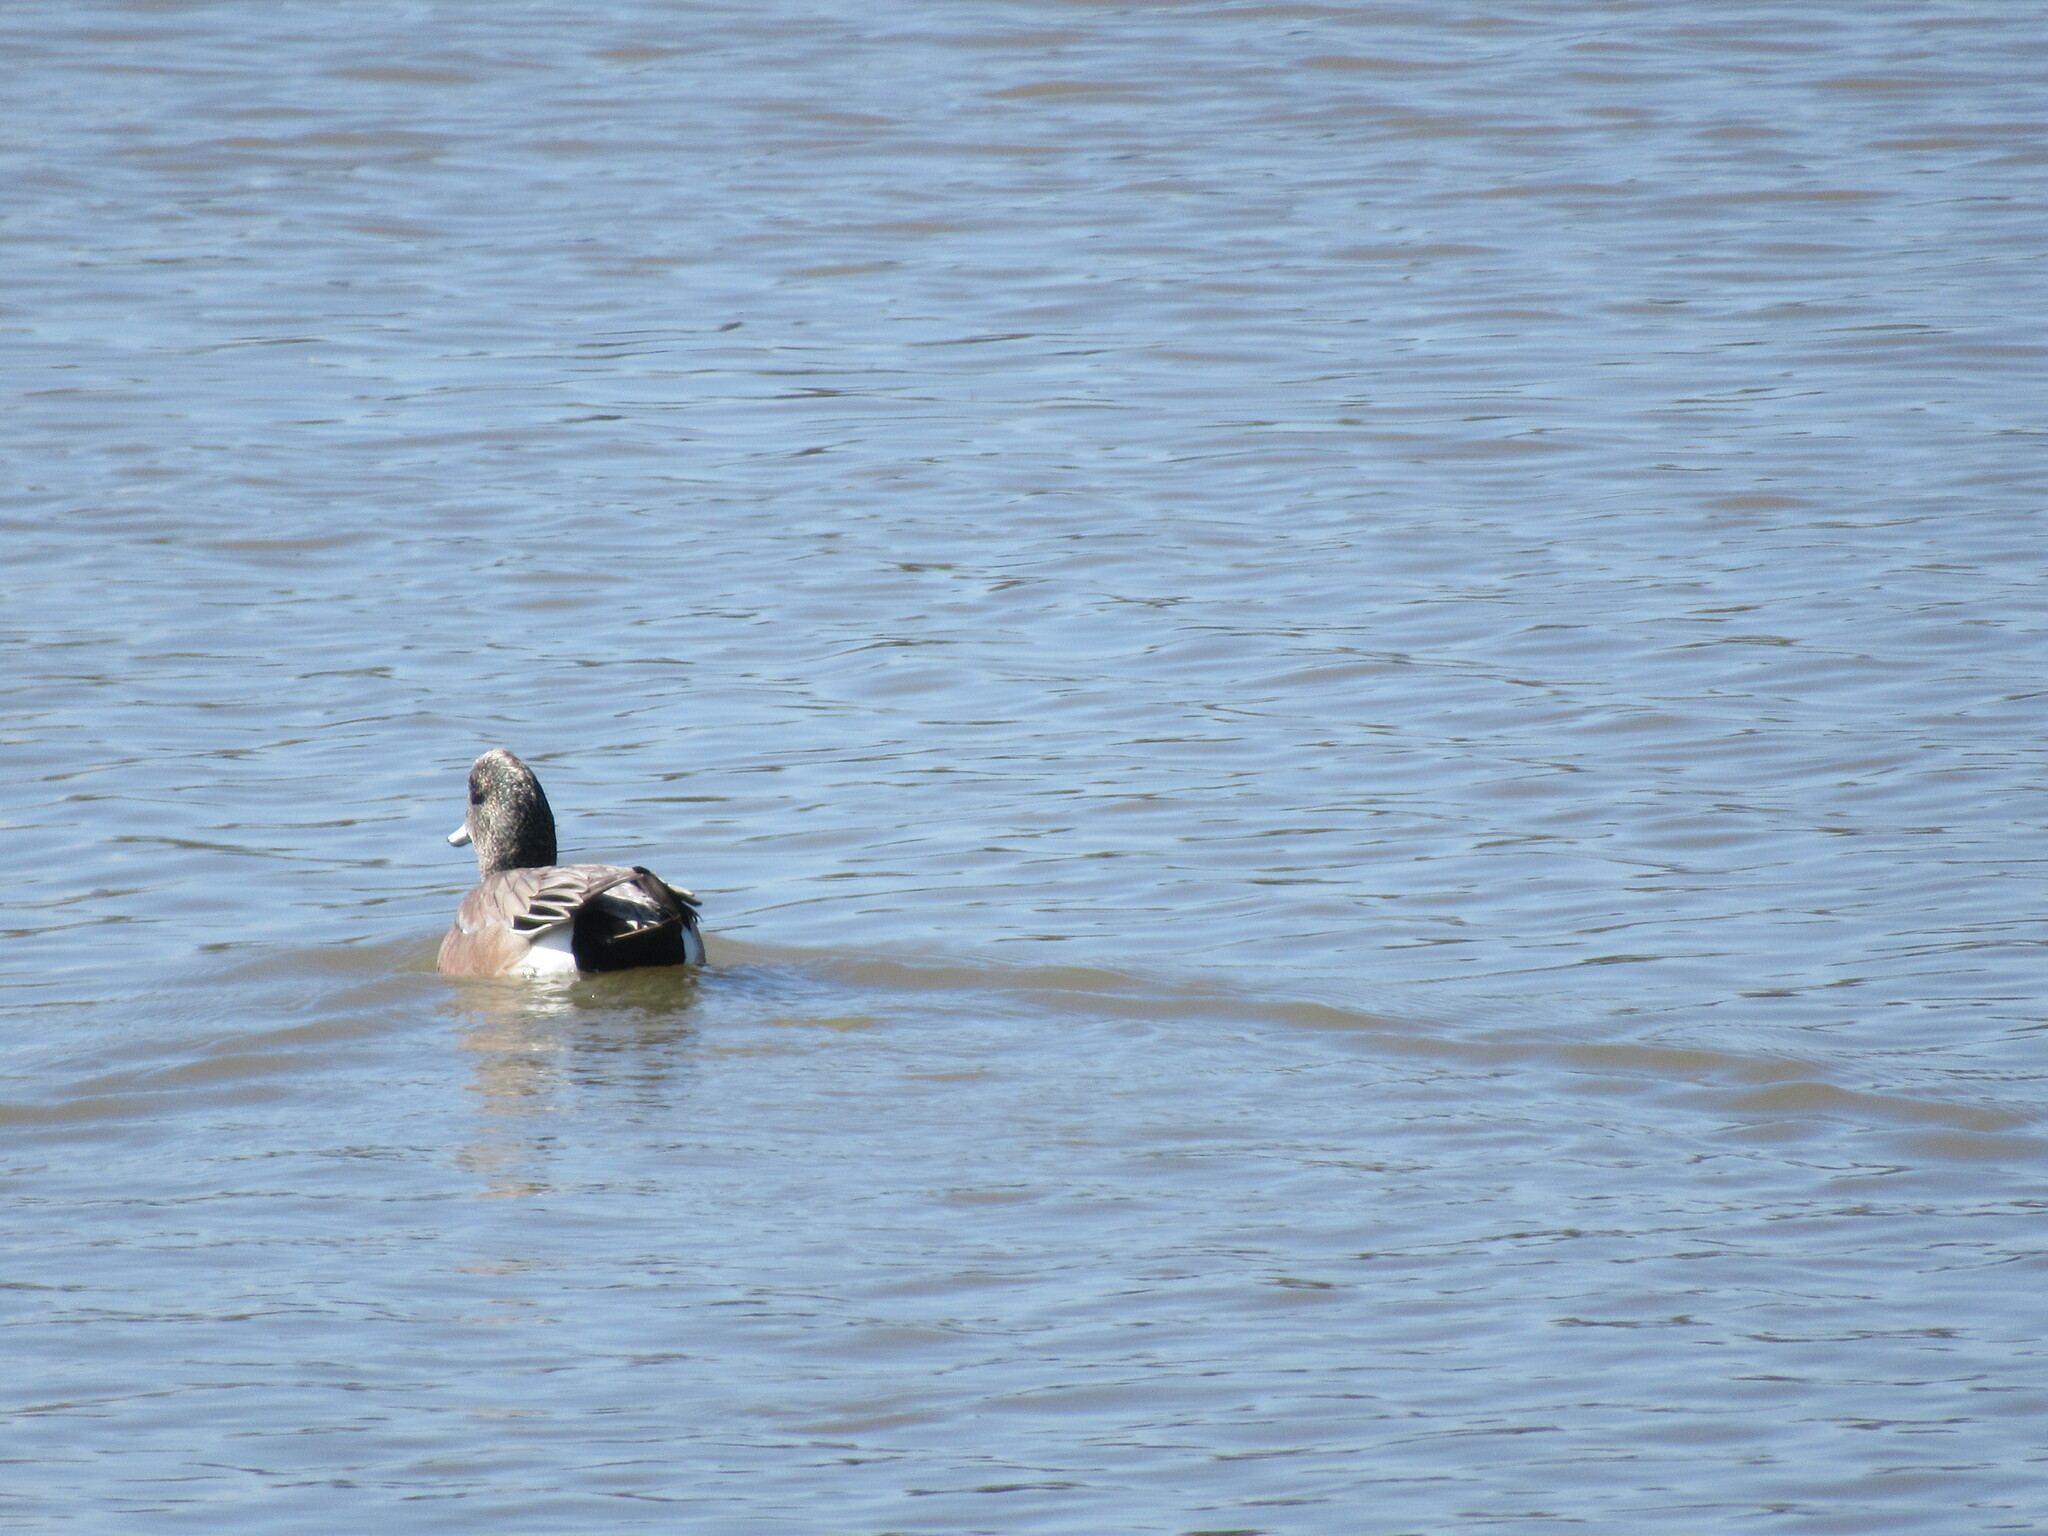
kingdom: Animalia
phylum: Chordata
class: Aves
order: Anseriformes
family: Anatidae
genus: Mareca
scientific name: Mareca americana
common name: American wigeon
